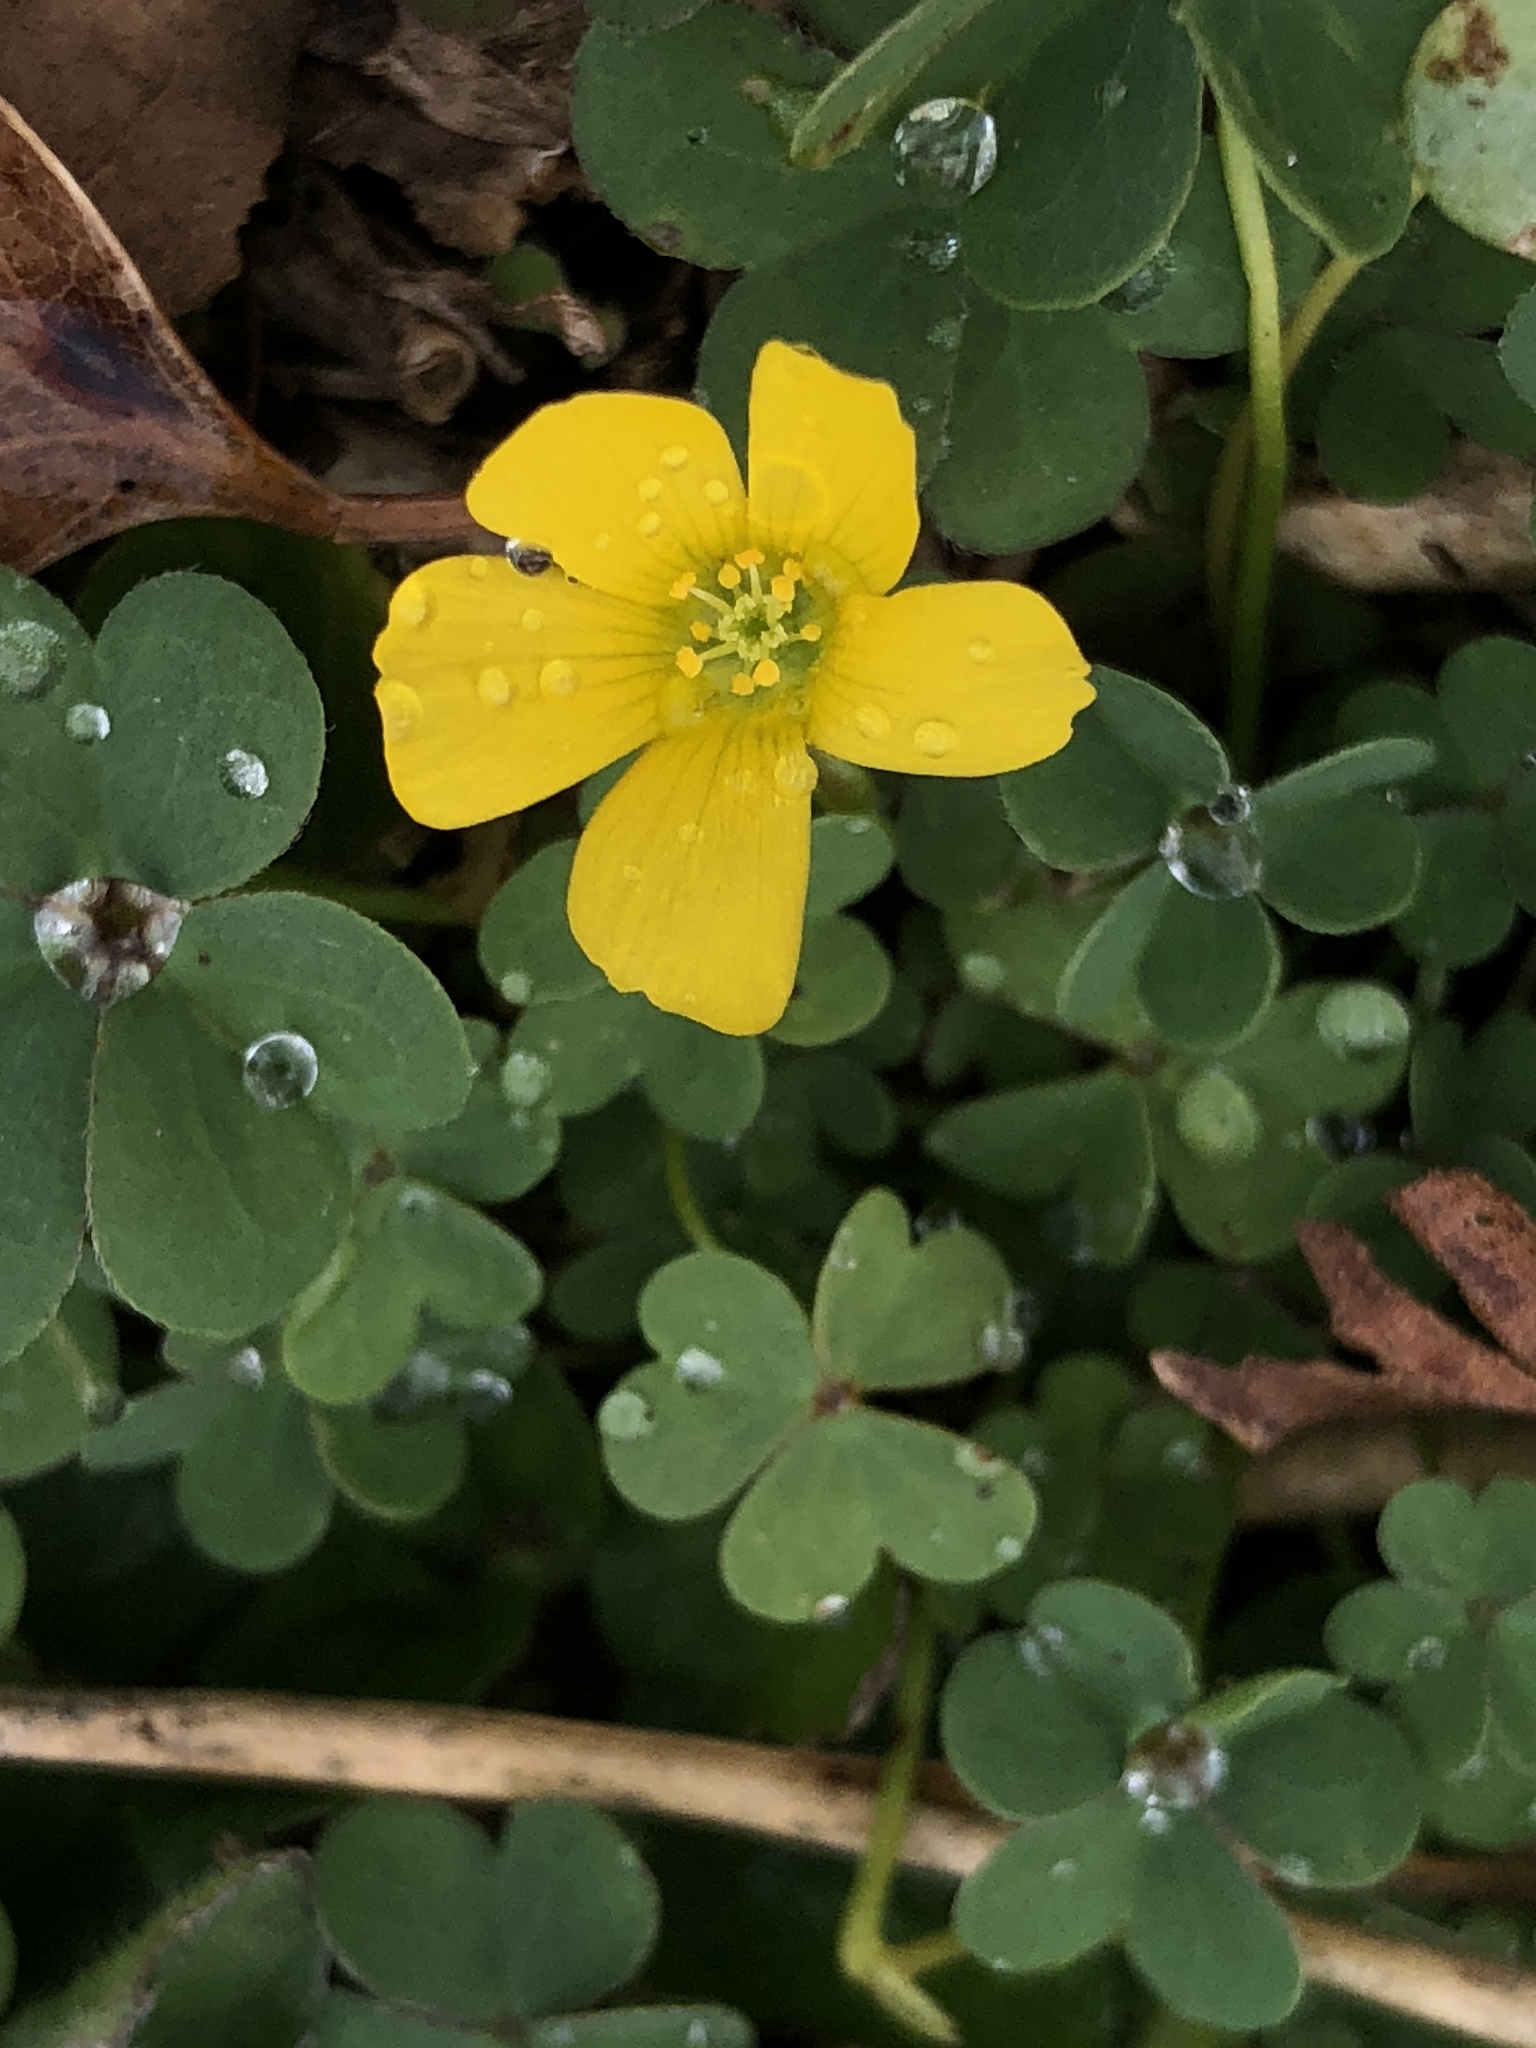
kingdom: Plantae
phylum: Tracheophyta
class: Magnoliopsida
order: Oxalidales
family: Oxalidaceae
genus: Oxalis
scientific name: Oxalis corniculata
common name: Procumbent yellow-sorrel
